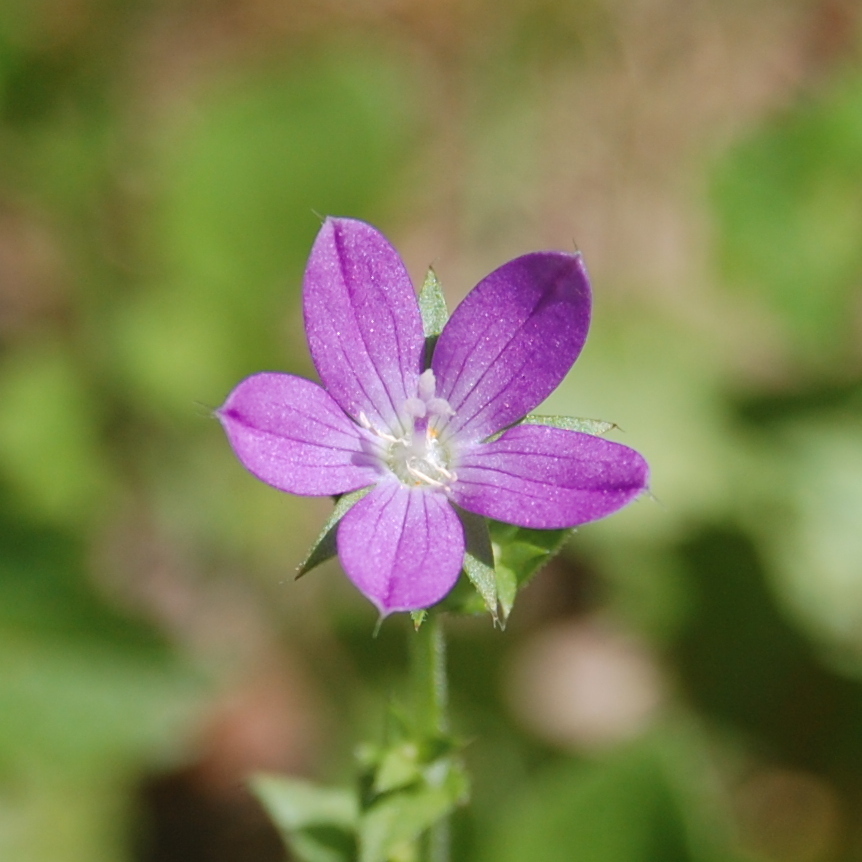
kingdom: Plantae
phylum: Tracheophyta
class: Magnoliopsida
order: Asterales
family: Campanulaceae
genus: Triodanis
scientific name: Triodanis biflora
